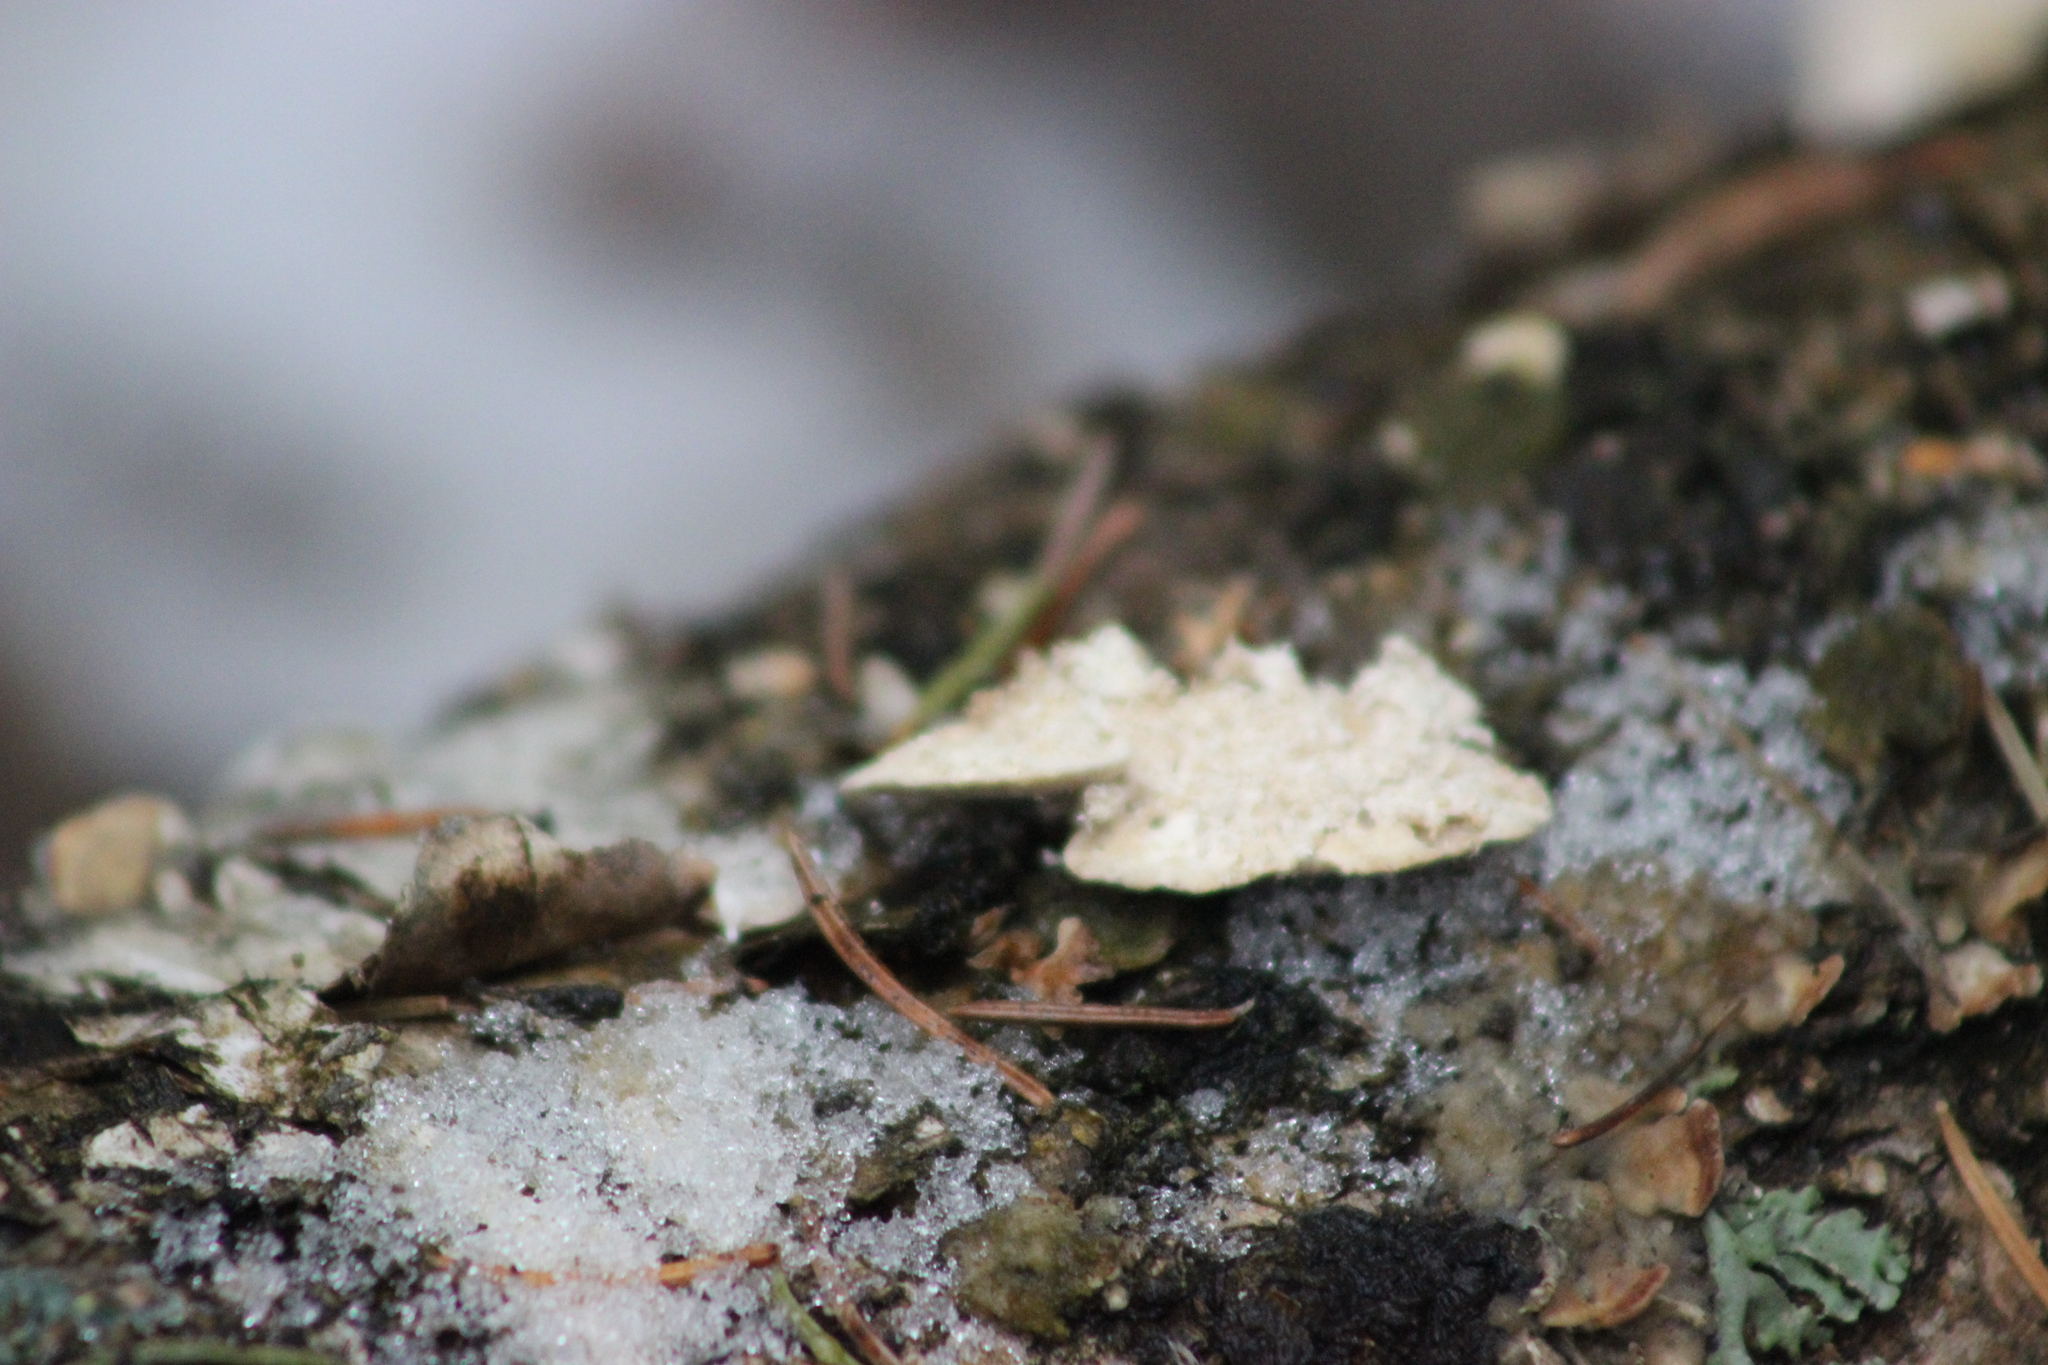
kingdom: Fungi
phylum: Basidiomycota
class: Agaricomycetes
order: Hymenochaetales
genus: Trichaptum
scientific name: Trichaptum biforme
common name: Violet-toothed polypore
